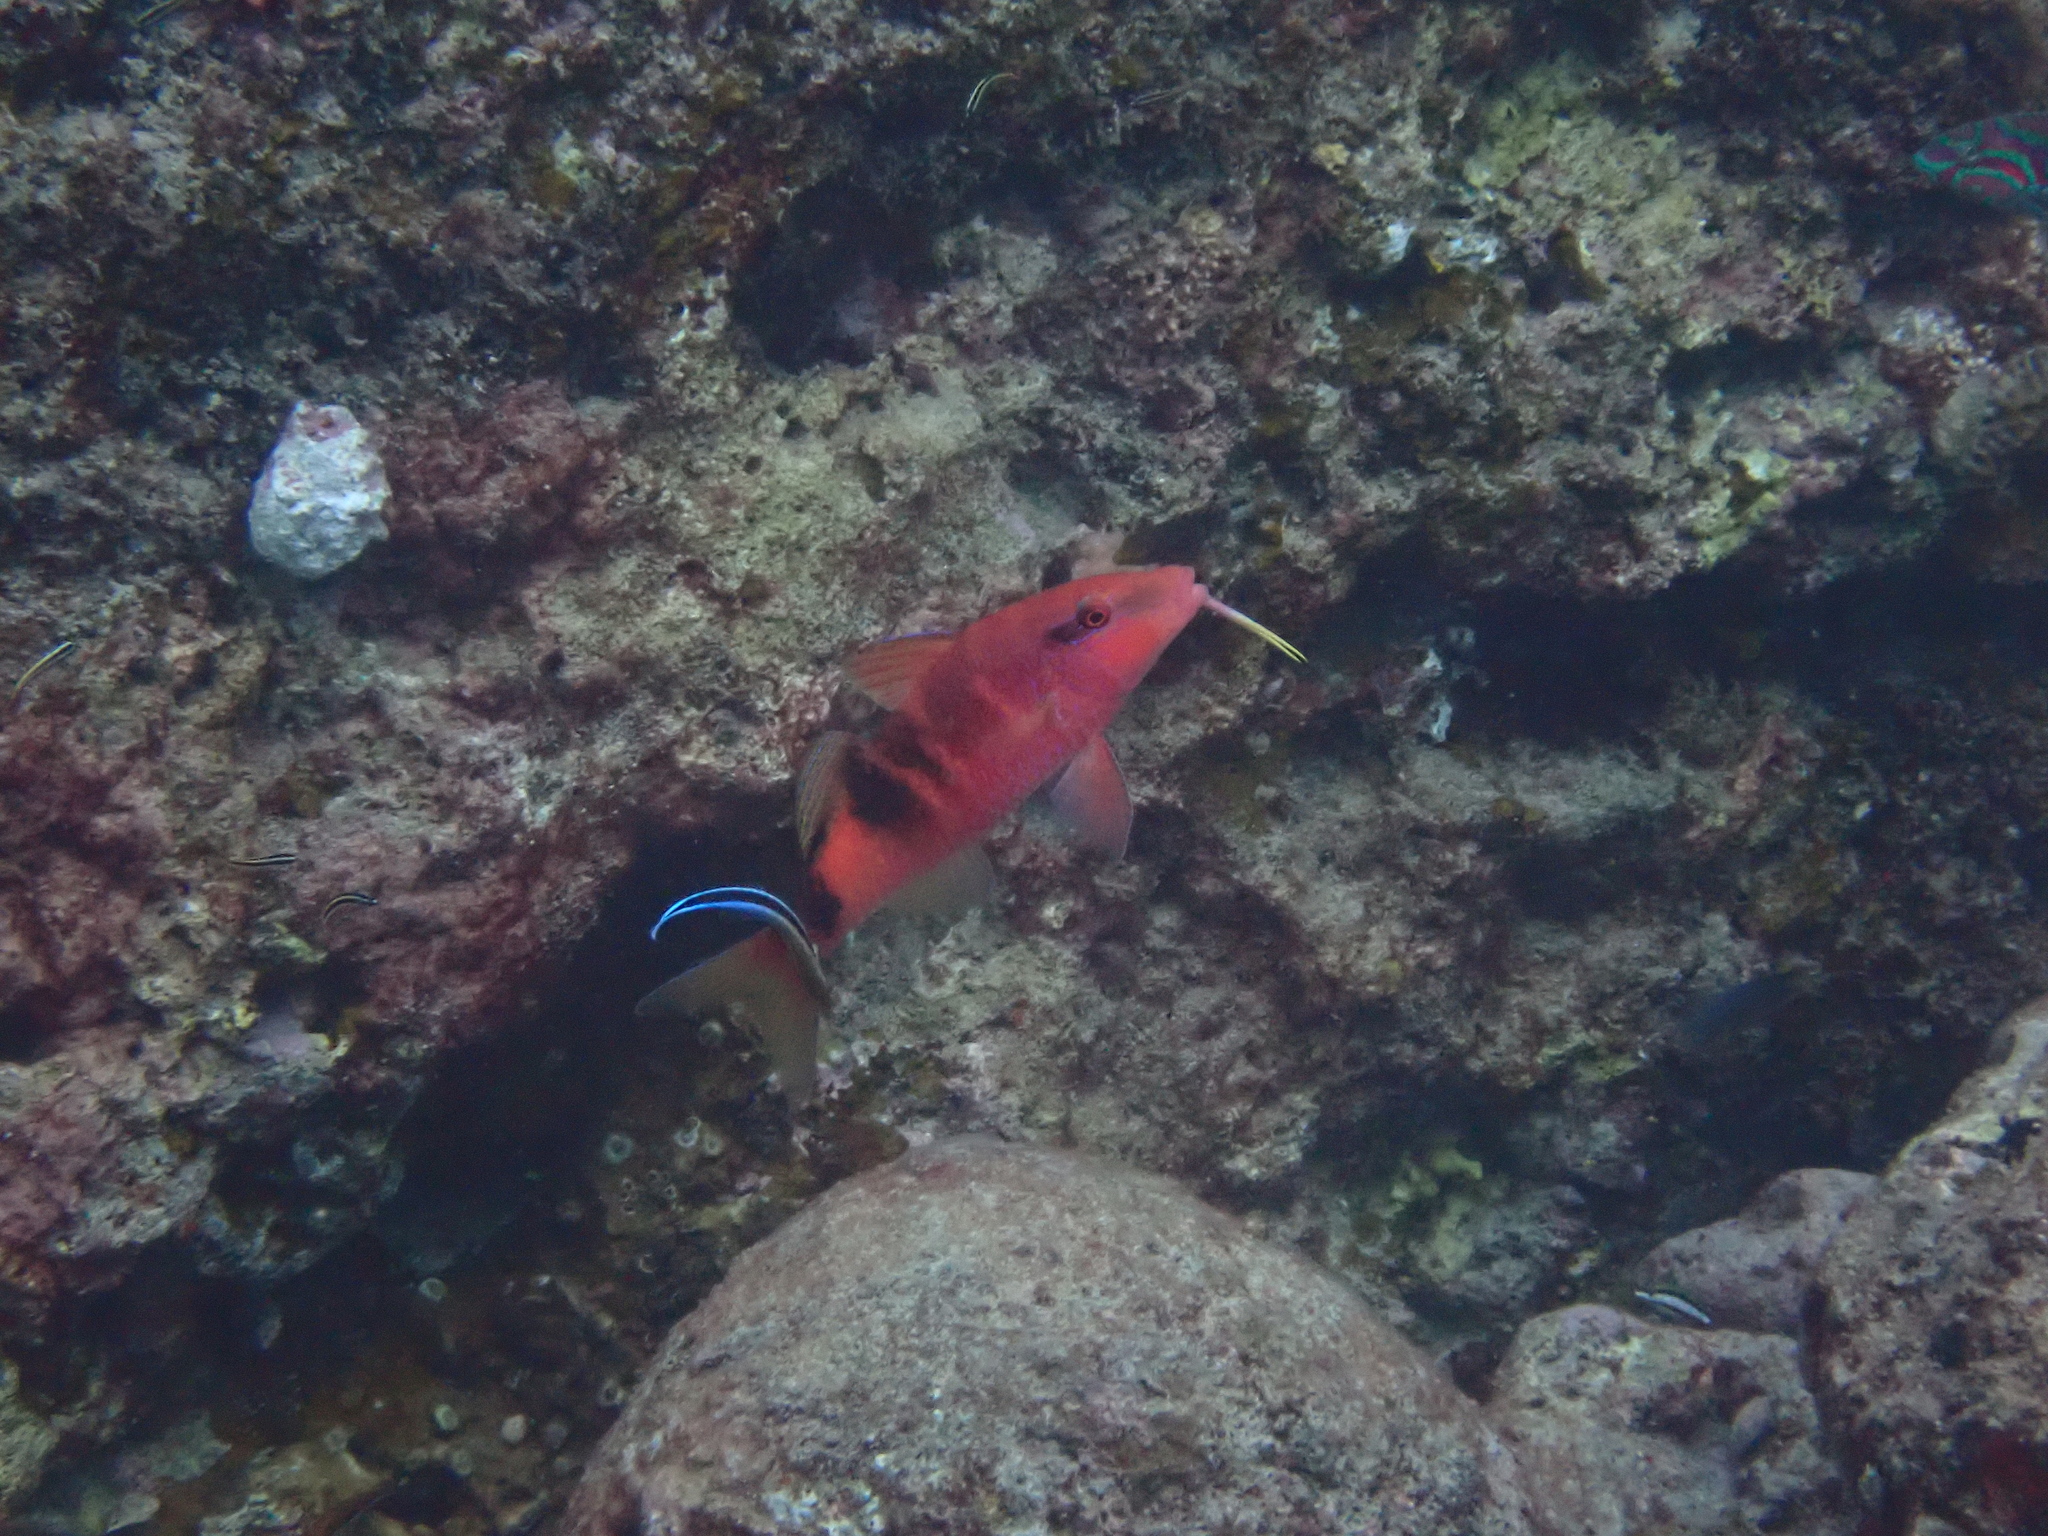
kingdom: Animalia
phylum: Chordata
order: Perciformes
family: Mullidae
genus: Parupeneus
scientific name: Parupeneus multifasciatus
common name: Manybar goatfish
